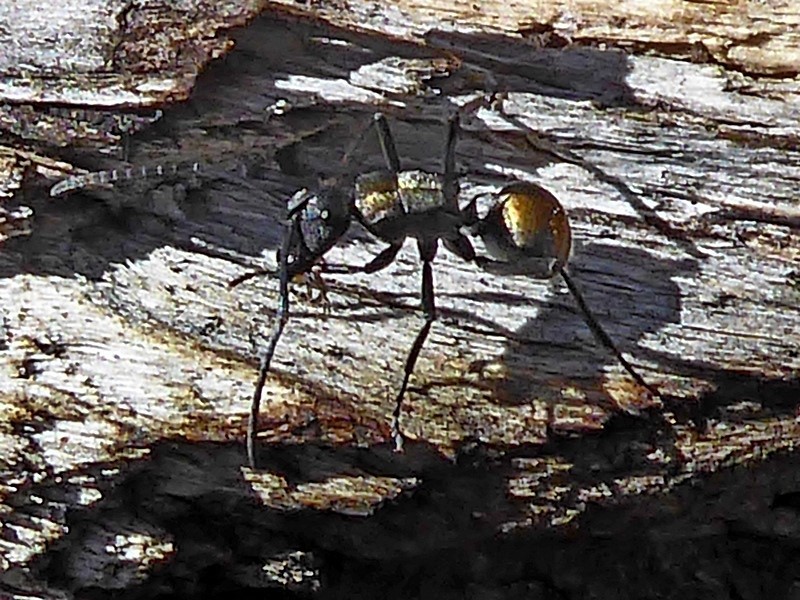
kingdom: Animalia
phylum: Arthropoda
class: Insecta
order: Hymenoptera
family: Formicidae
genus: Polyrhachis
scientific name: Polyrhachis ammon
